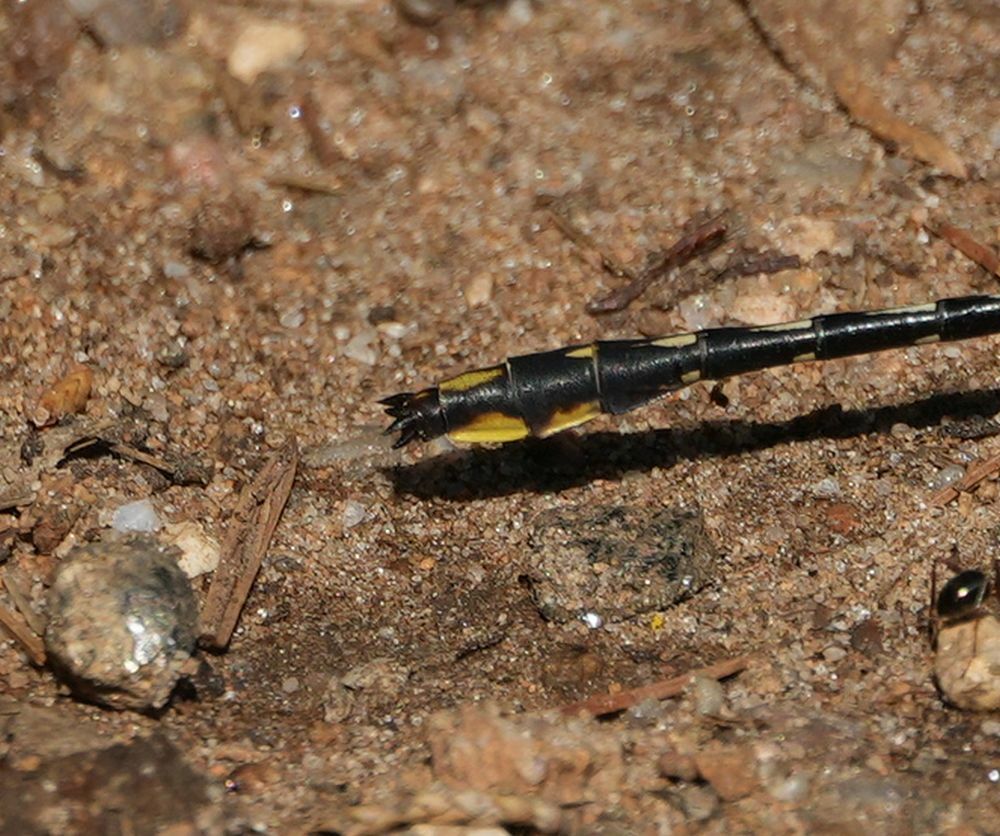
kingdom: Animalia
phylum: Arthropoda
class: Insecta
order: Odonata
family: Gomphidae
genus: Phanogomphus
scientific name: Phanogomphus exilis
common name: Lancet clubtail
